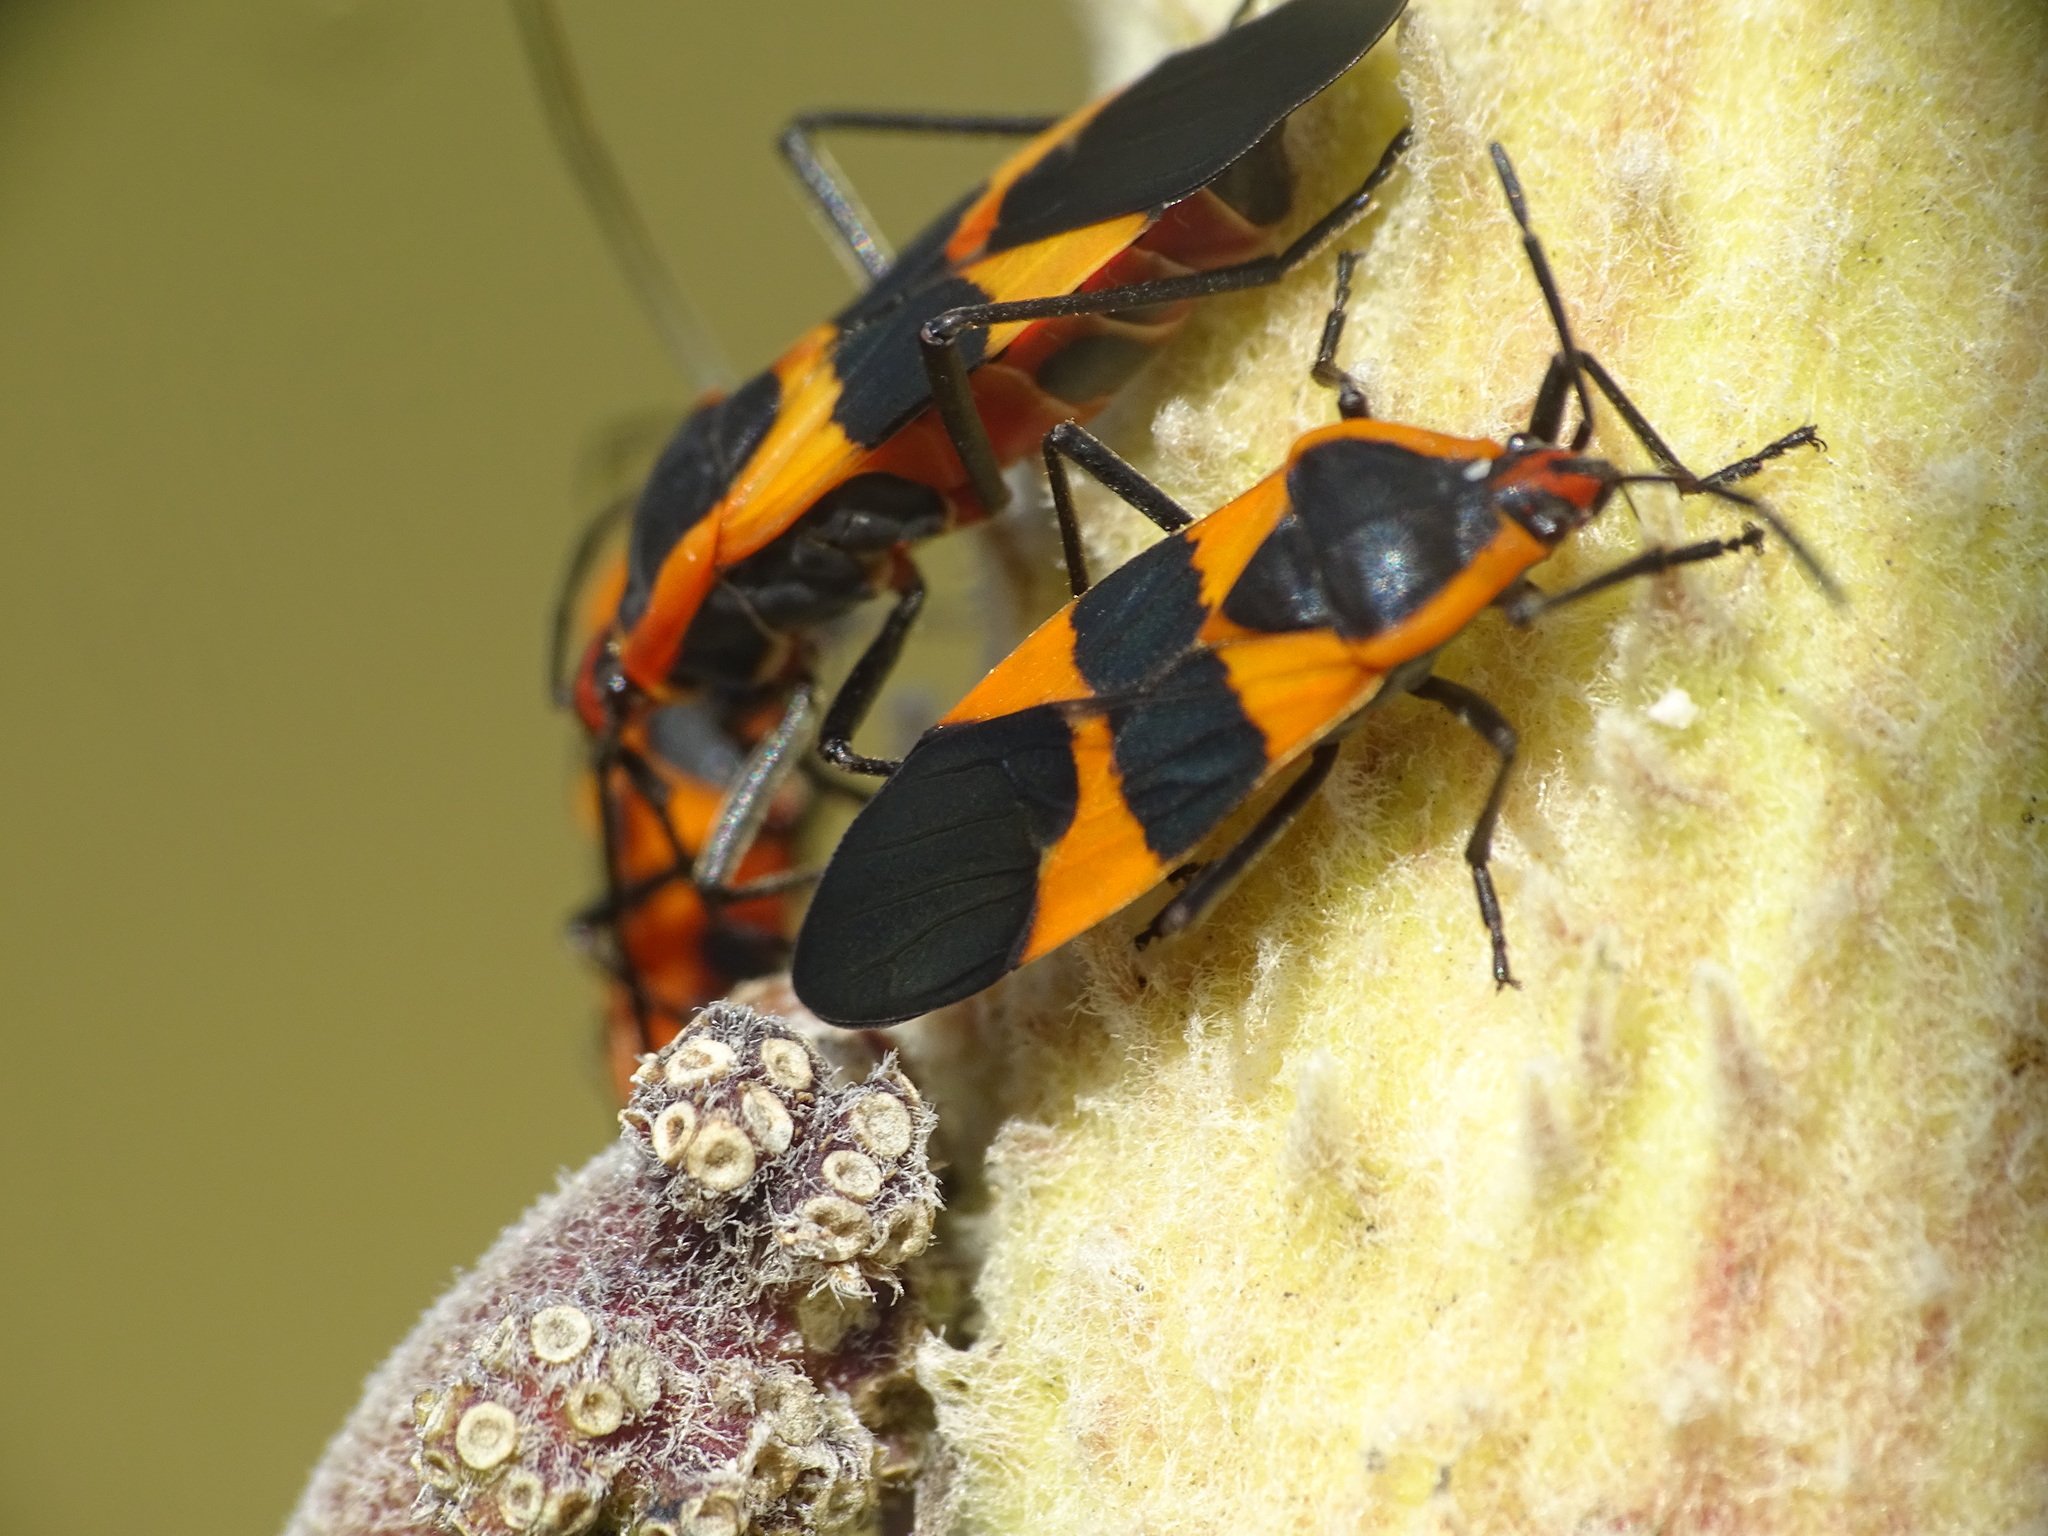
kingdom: Animalia
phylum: Arthropoda
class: Insecta
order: Hemiptera
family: Lygaeidae
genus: Oncopeltus
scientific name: Oncopeltus fasciatus
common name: Large milkweed bug
